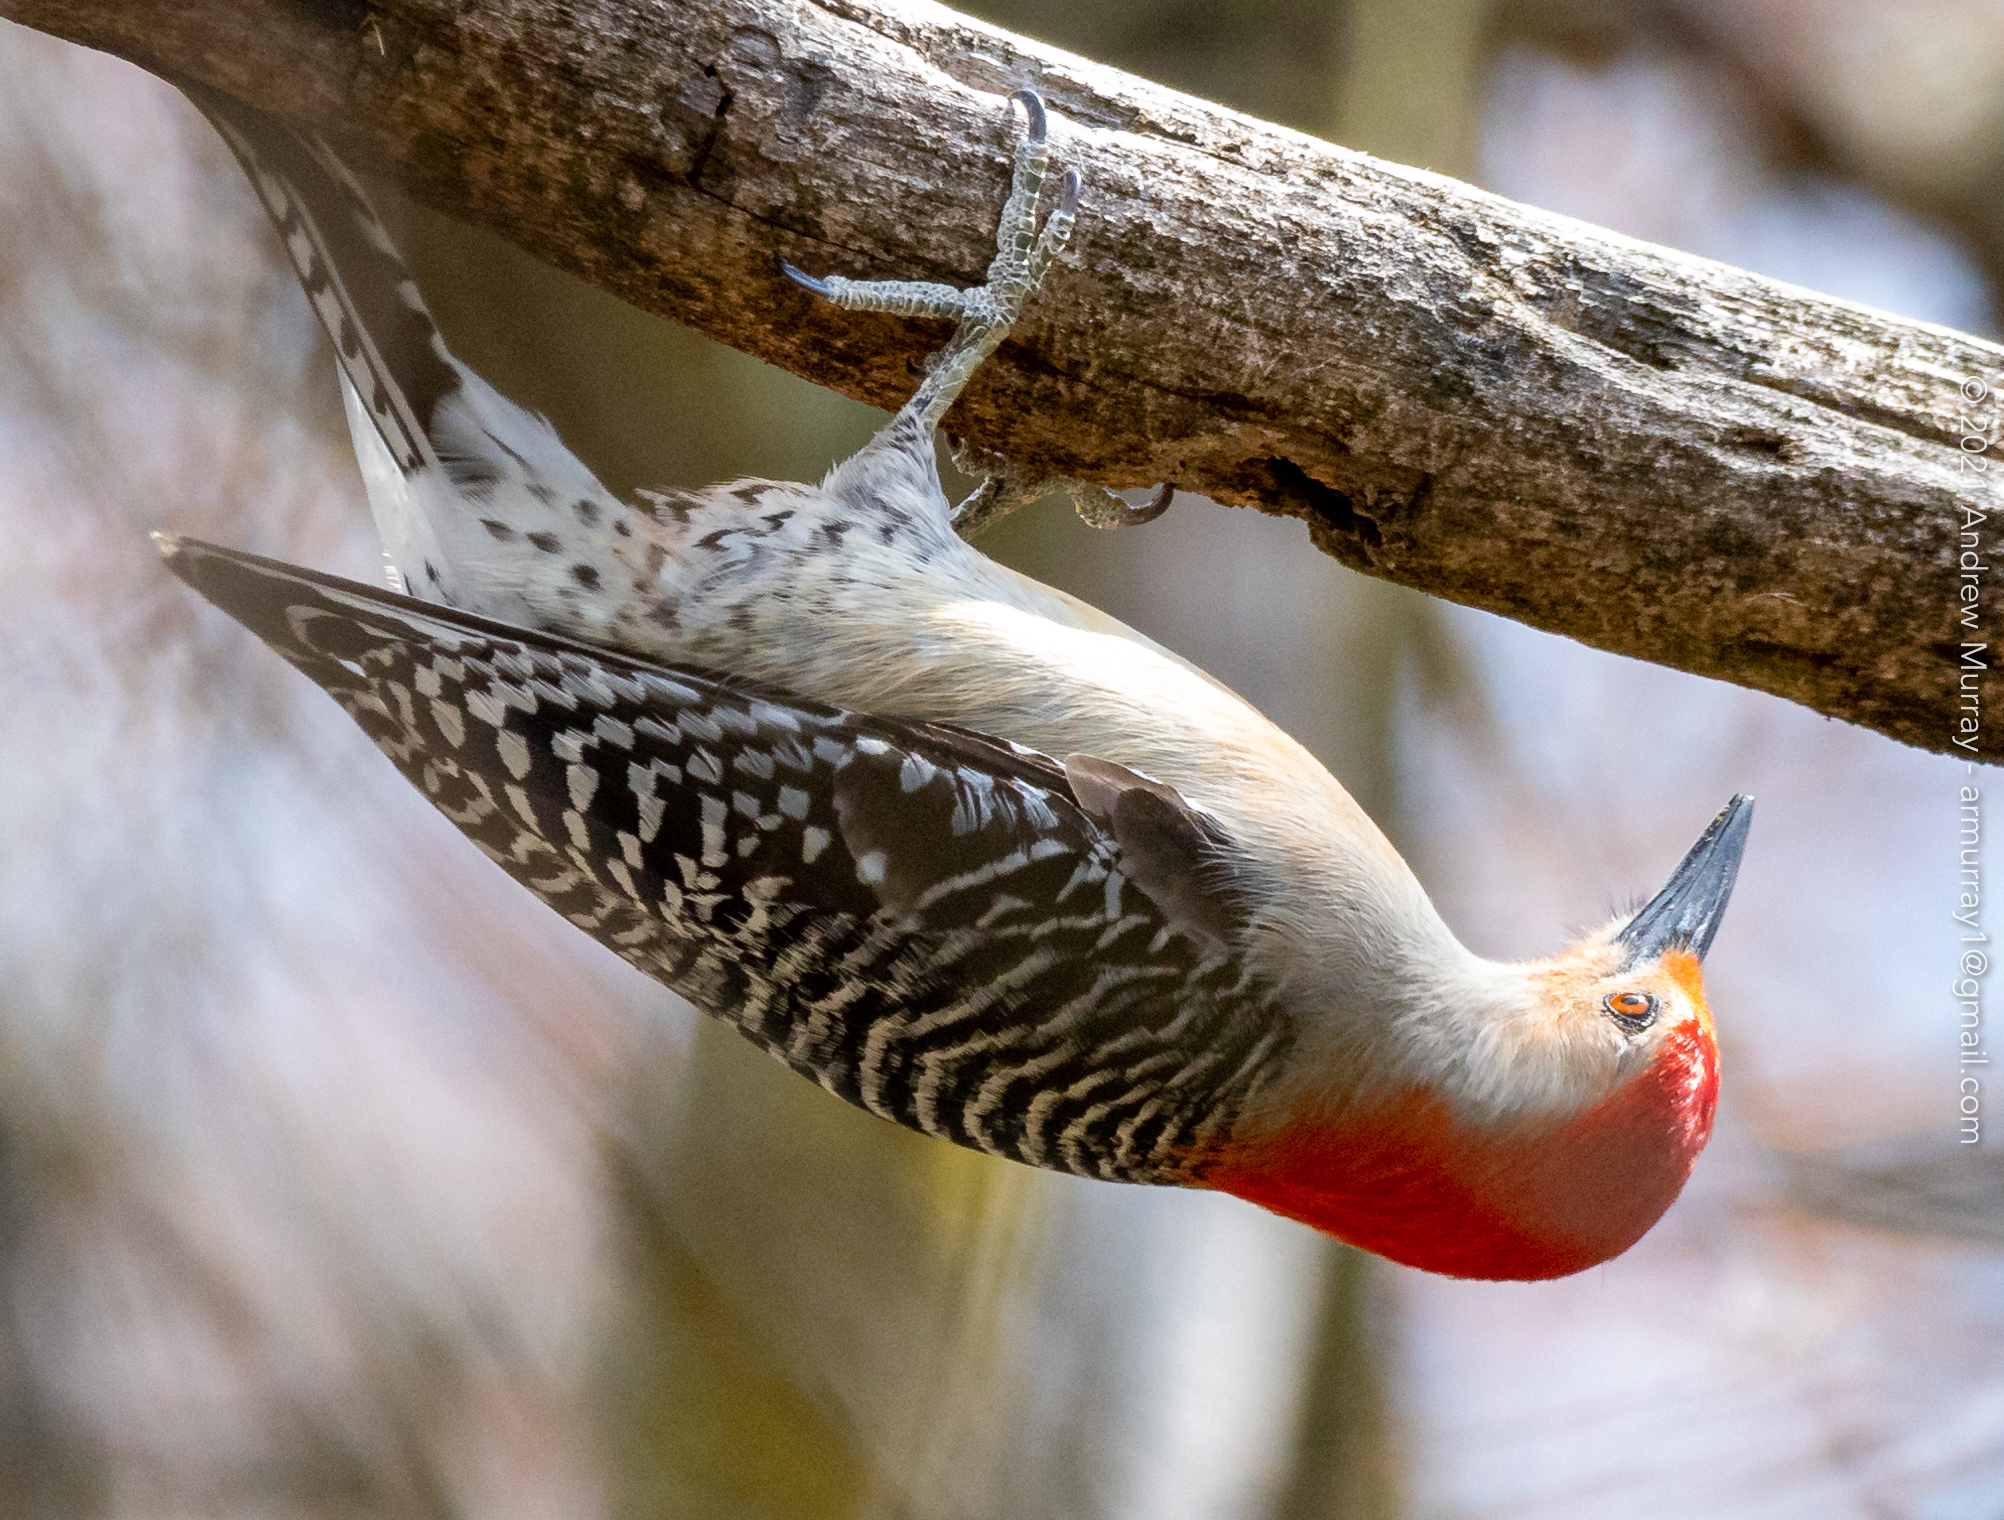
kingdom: Animalia
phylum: Chordata
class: Aves
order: Piciformes
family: Picidae
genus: Melanerpes
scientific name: Melanerpes carolinus
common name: Red-bellied woodpecker
